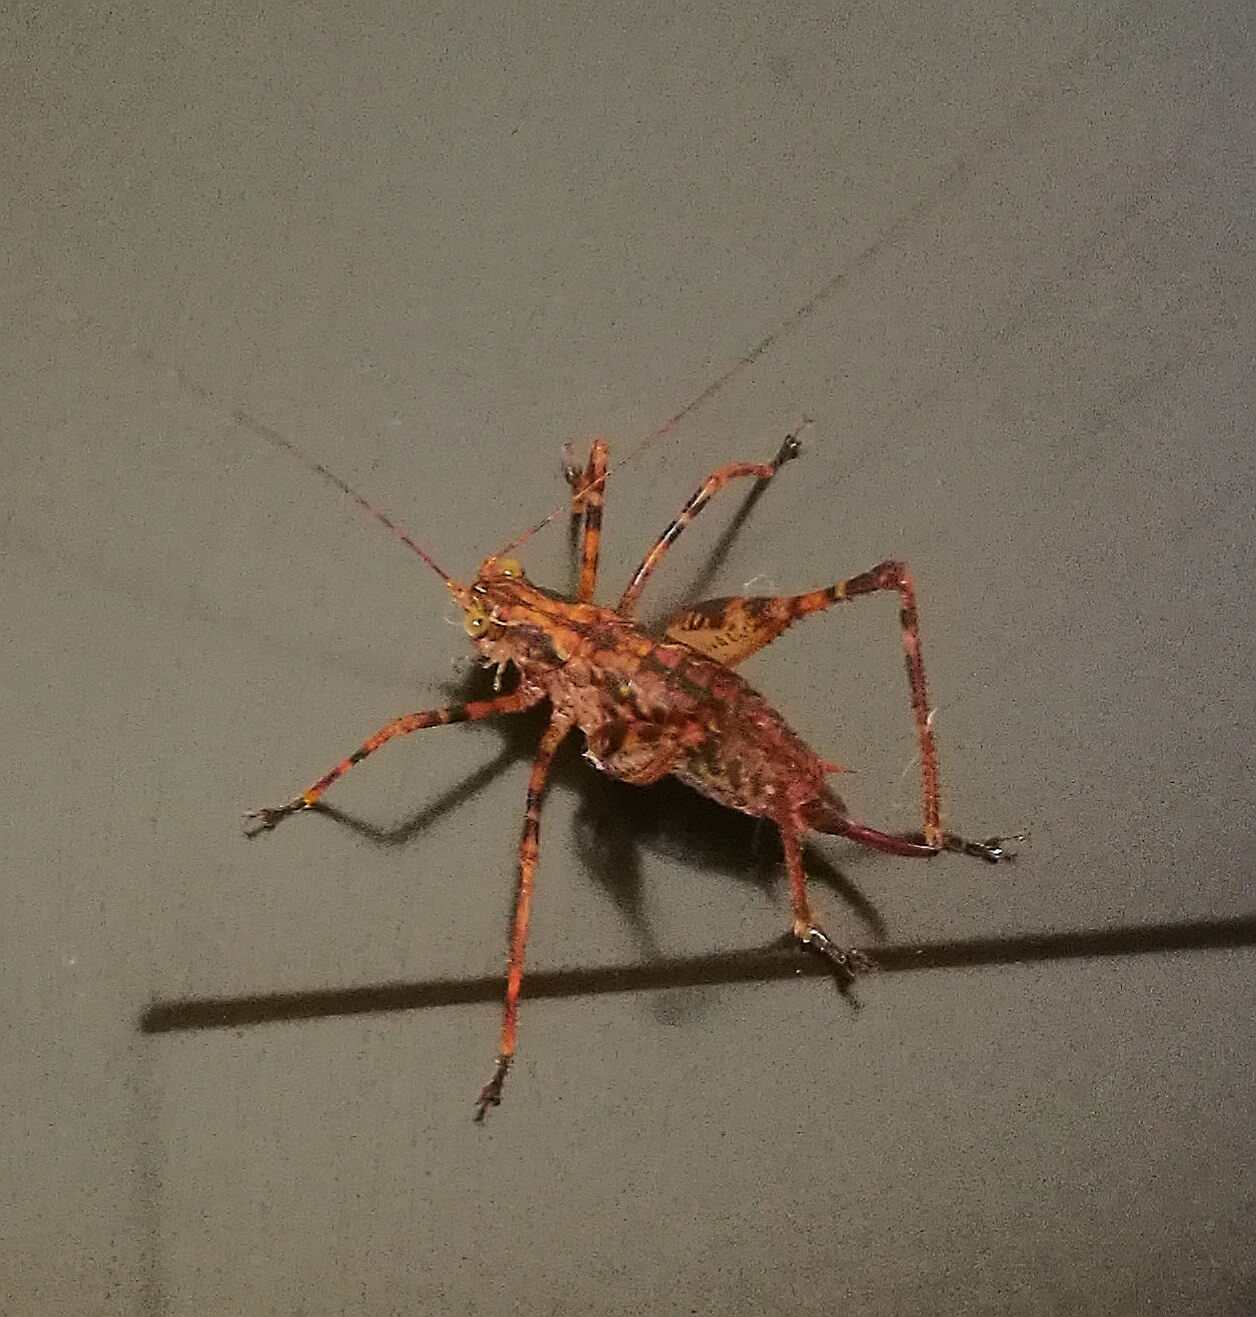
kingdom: Animalia
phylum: Arthropoda
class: Insecta
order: Orthoptera
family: Tettigoniidae
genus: Zitsikama
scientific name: Zitsikama tessellata
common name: Knysna forest ground katydid
